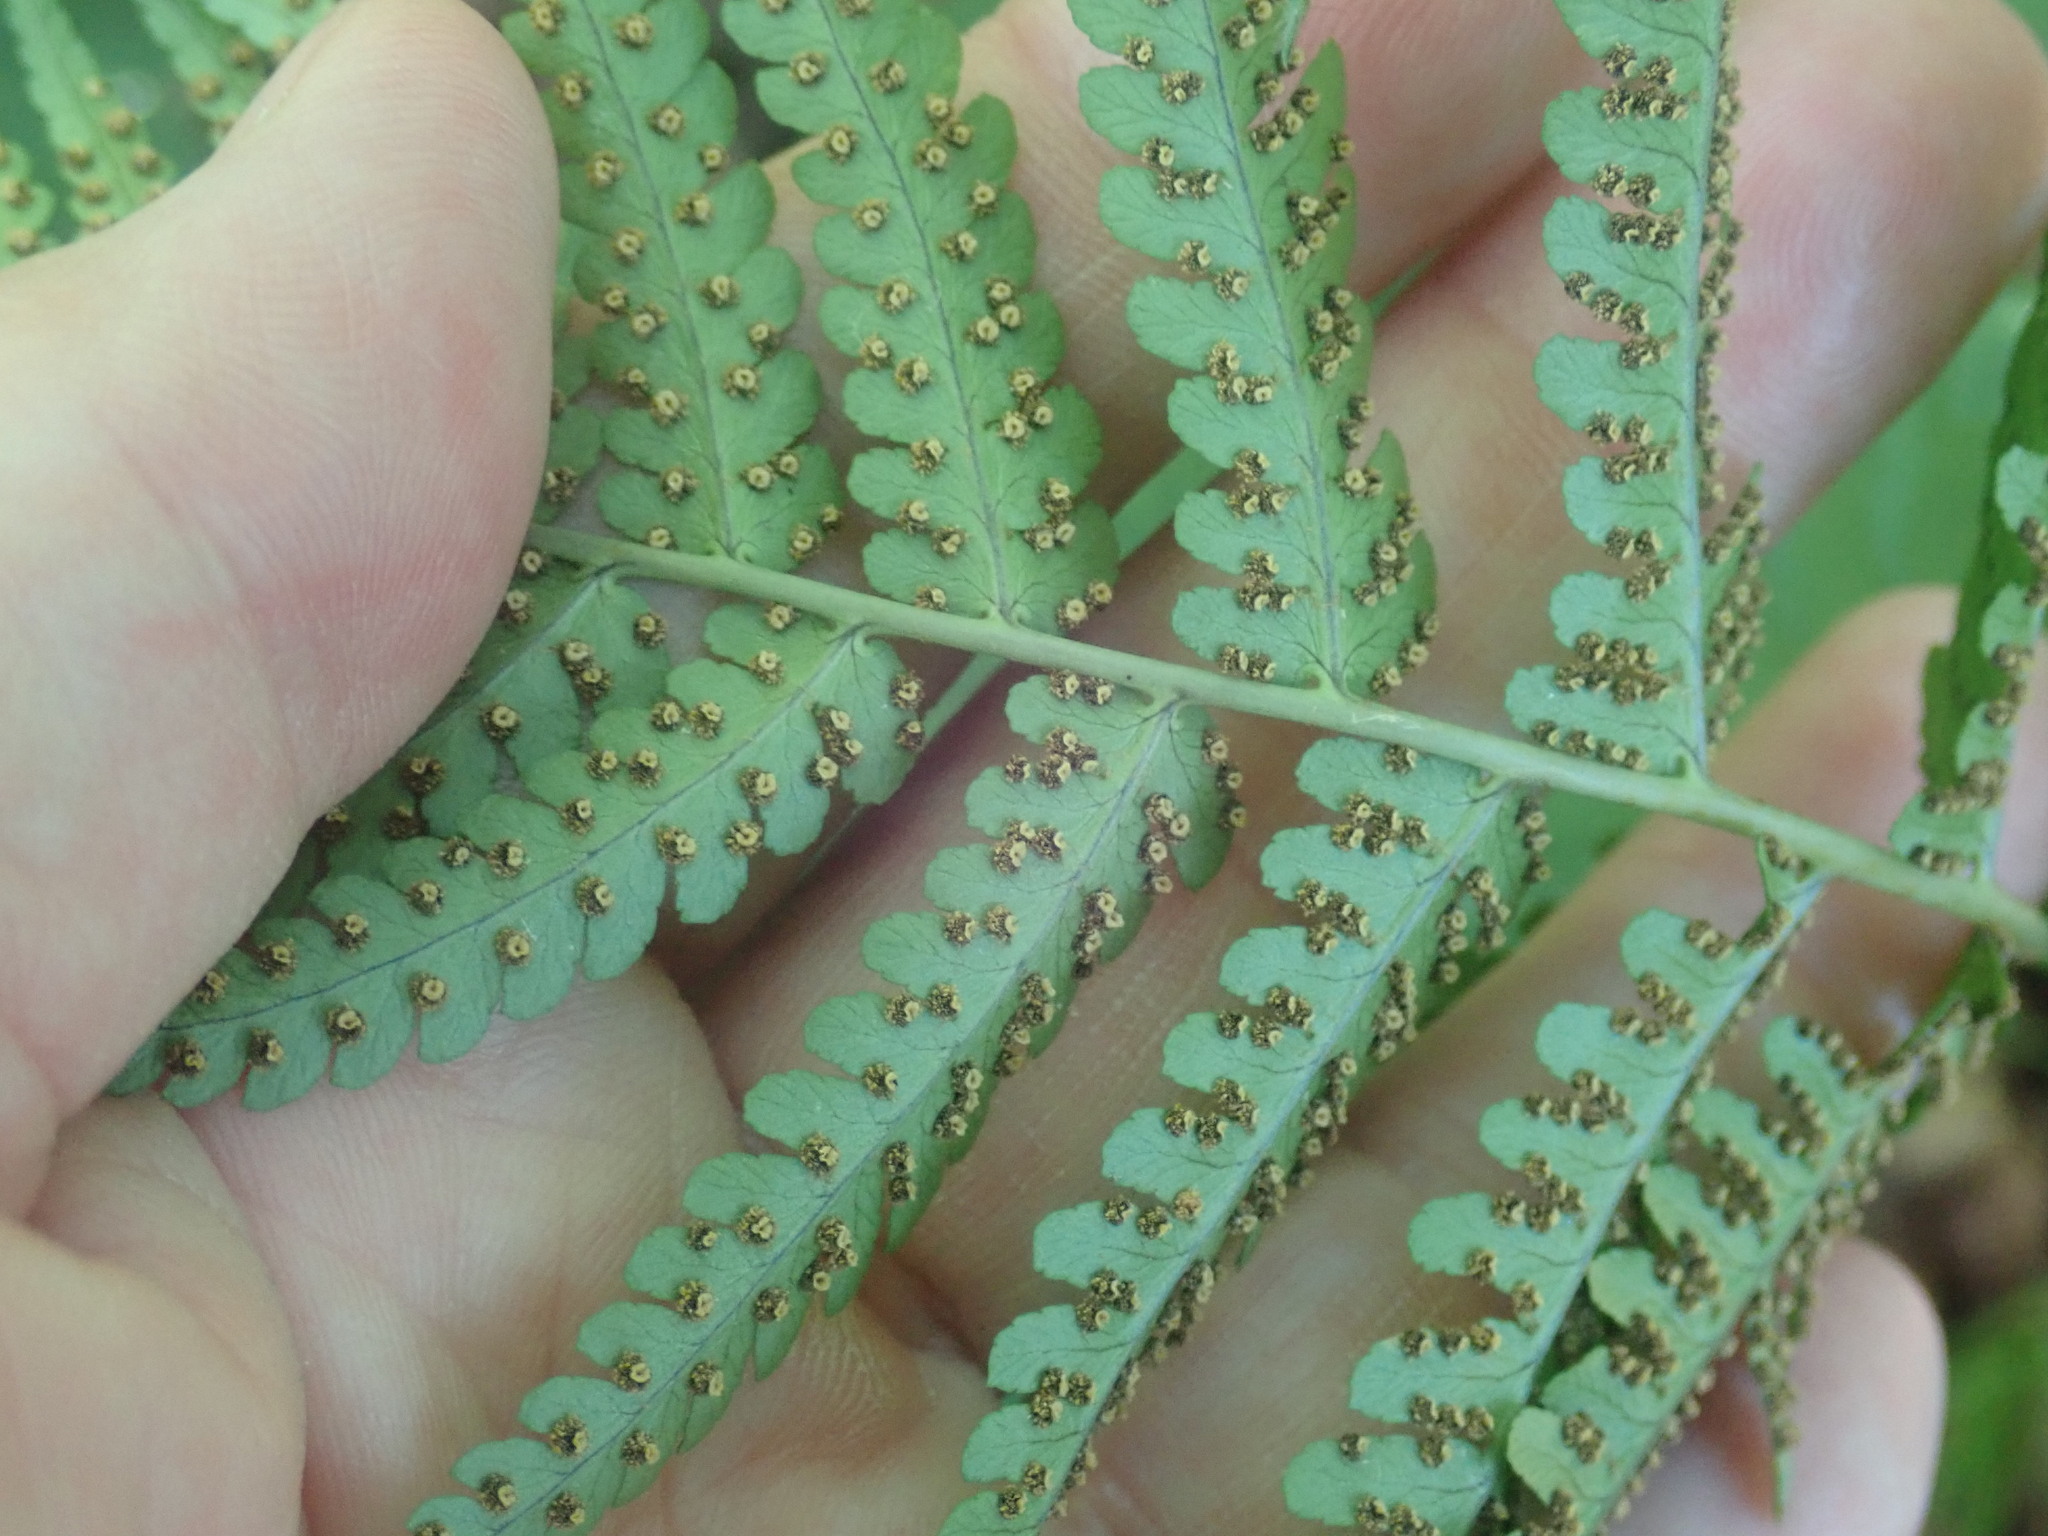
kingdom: Plantae
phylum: Tracheophyta
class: Polypodiopsida
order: Polypodiales
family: Dryopteridaceae
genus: Dryopteris
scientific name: Dryopteris marginalis
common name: Marginal wood fern
